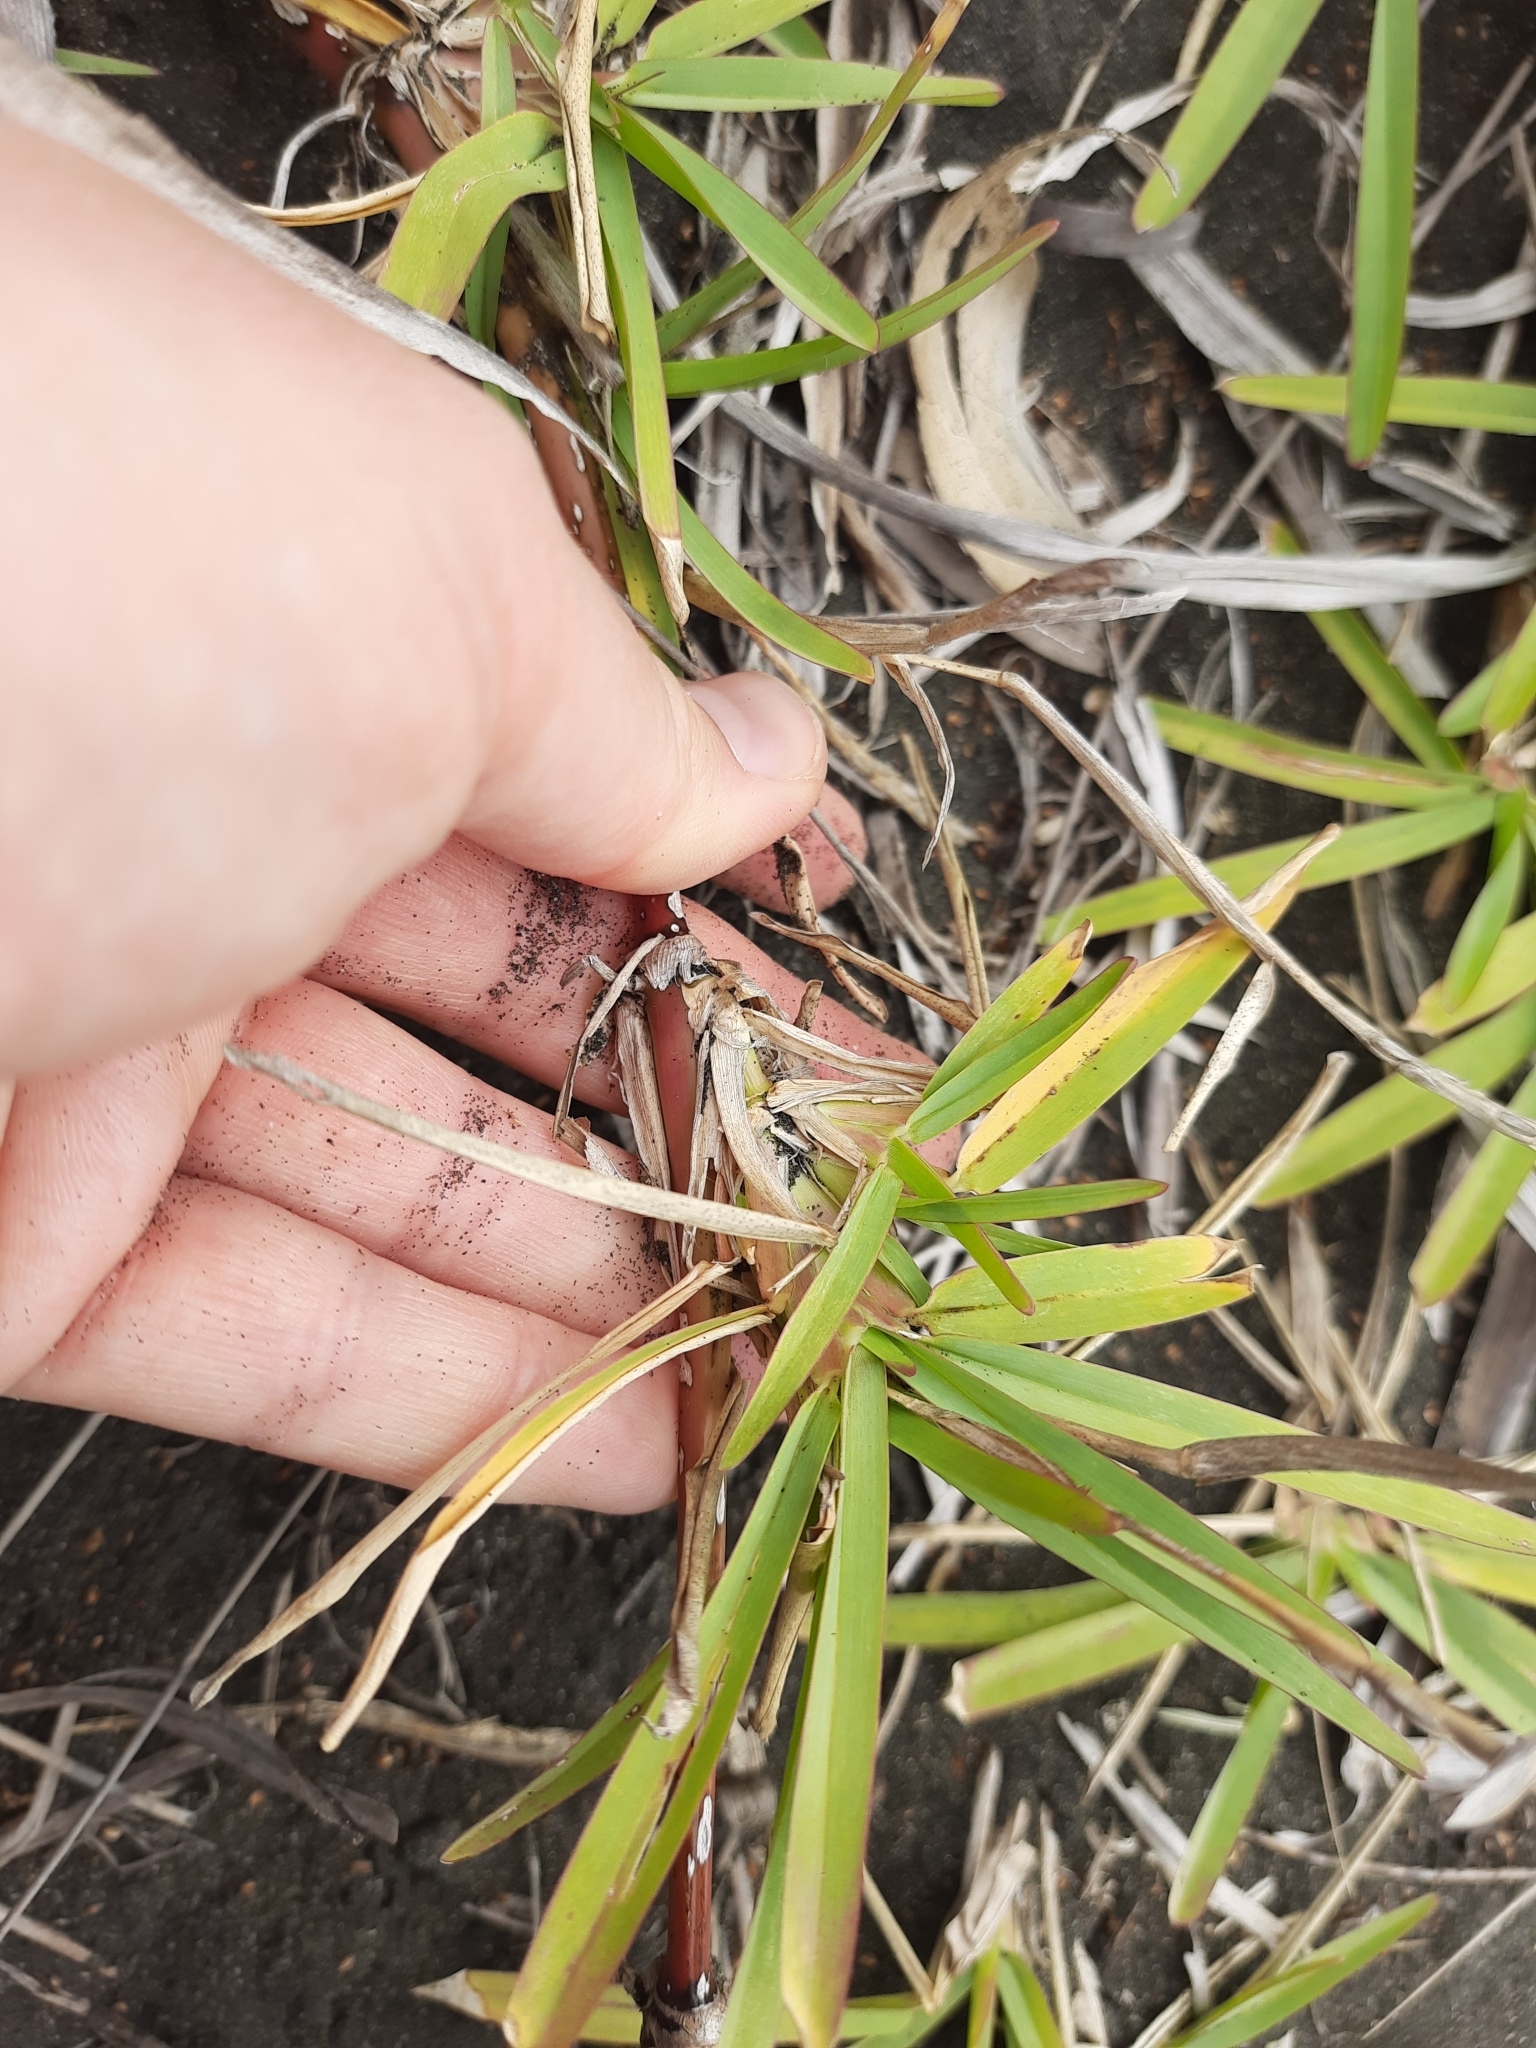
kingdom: Plantae
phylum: Tracheophyta
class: Liliopsida
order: Poales
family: Poaceae
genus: Stenotaphrum
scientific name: Stenotaphrum secundatum
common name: St. augustine grass
